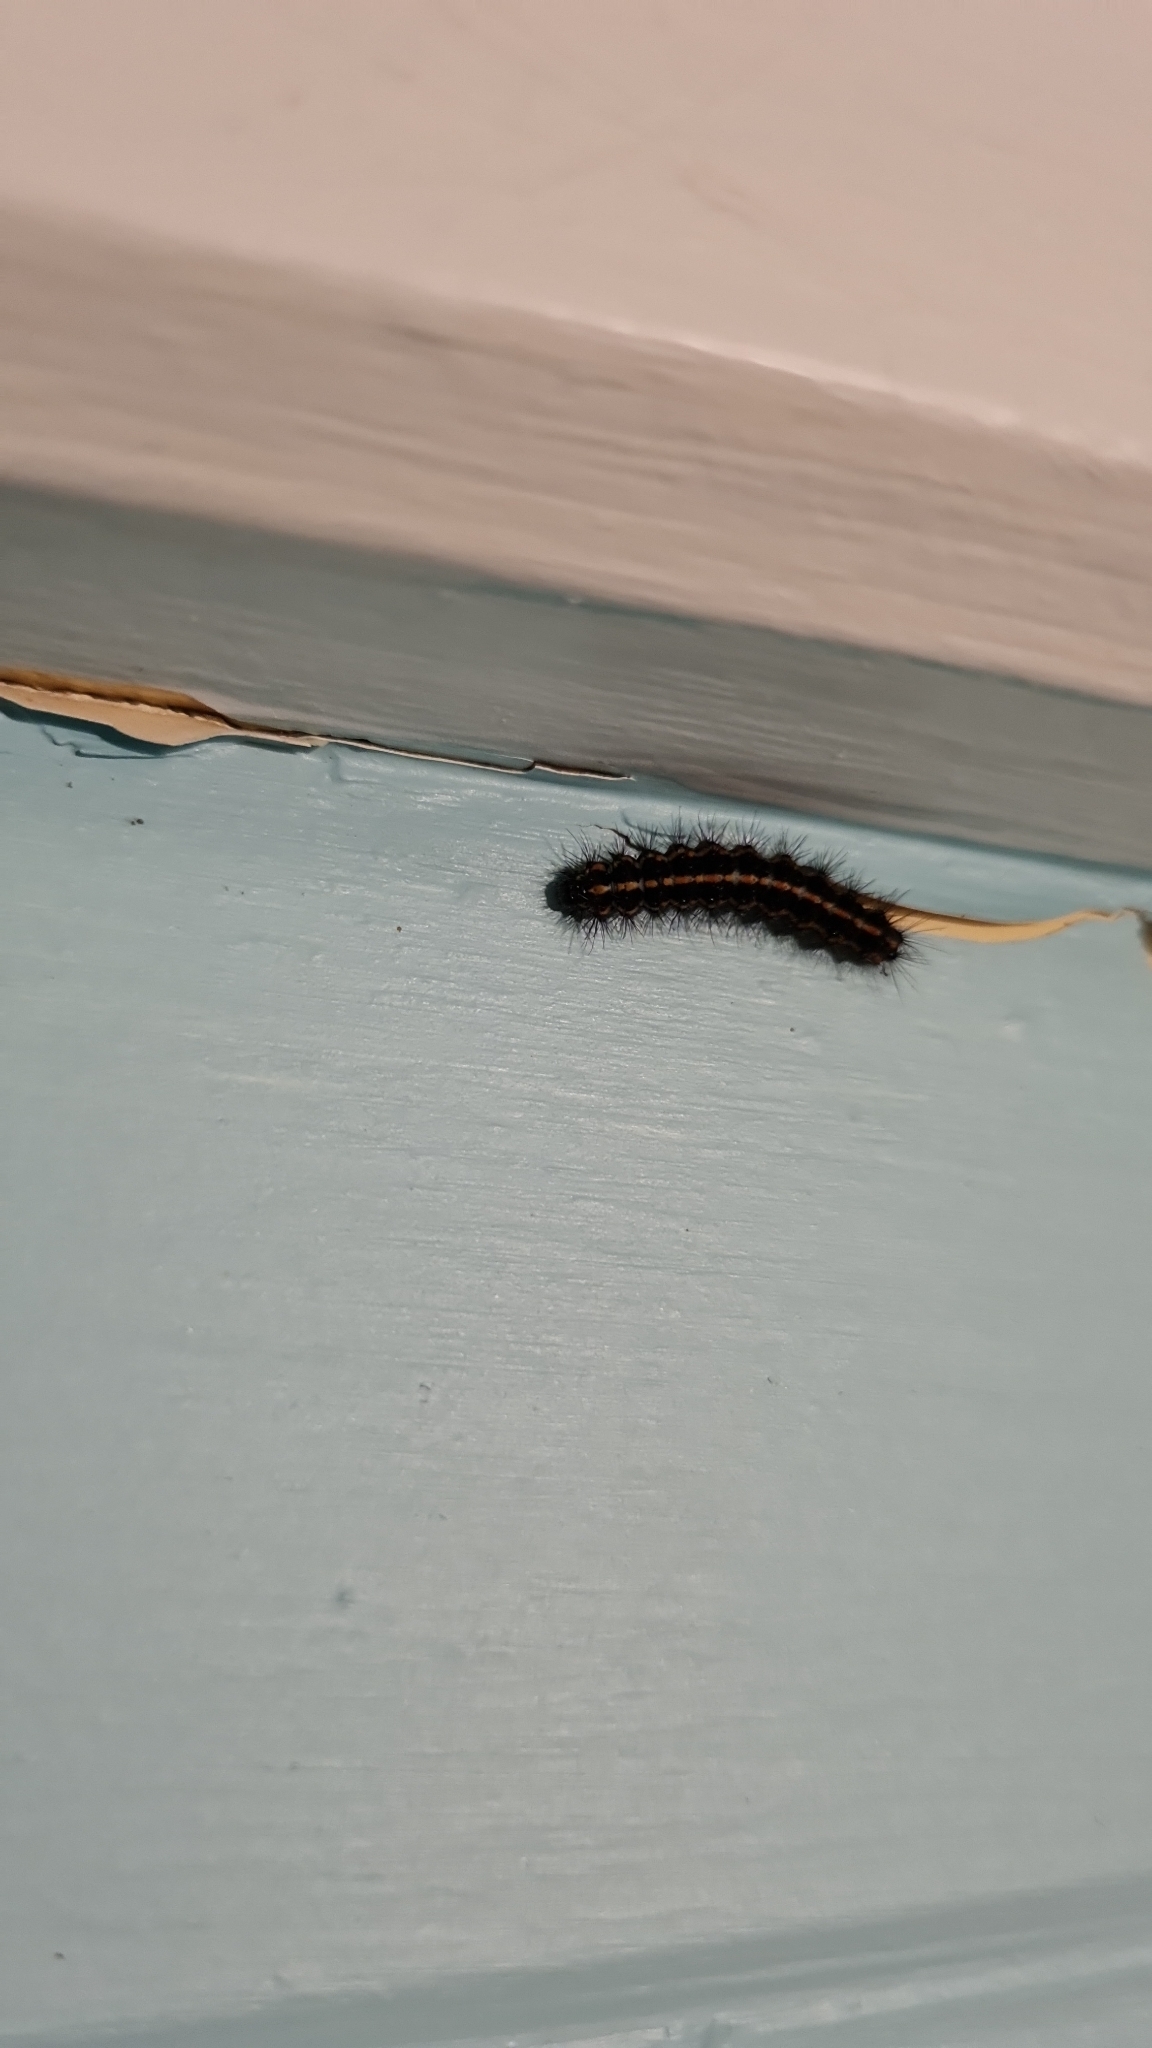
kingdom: Animalia
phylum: Arthropoda
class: Insecta
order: Lepidoptera
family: Erebidae
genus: Nyctemera
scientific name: Nyctemera annulatum
